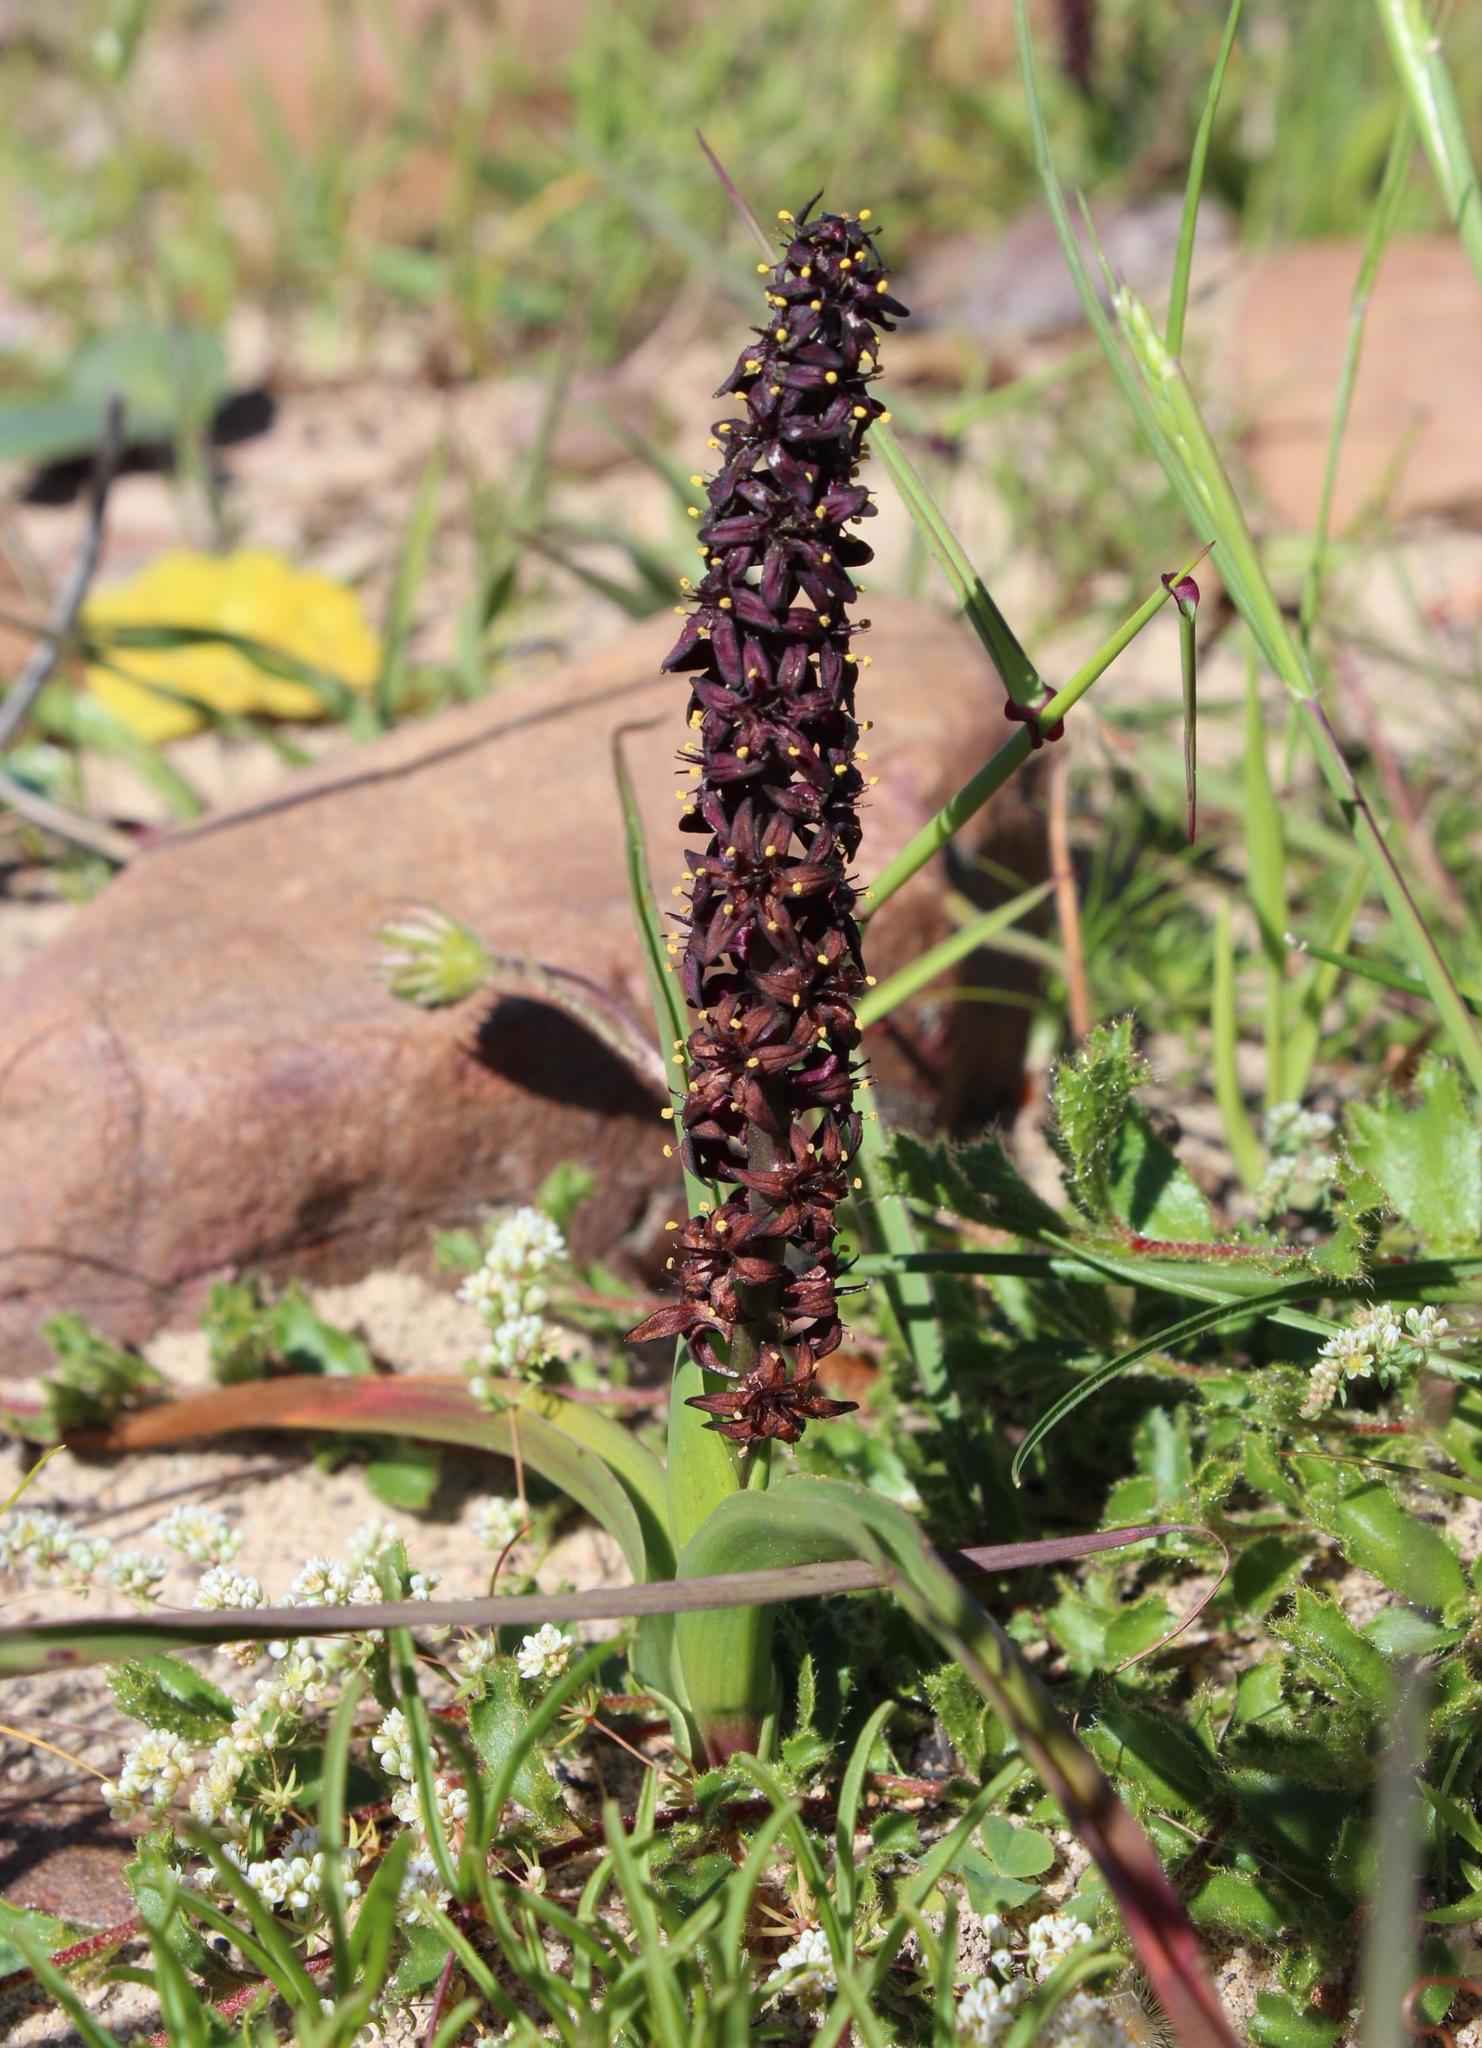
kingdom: Plantae
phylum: Tracheophyta
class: Liliopsida
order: Liliales
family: Colchicaceae
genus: Wurmbea
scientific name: Wurmbea recurva
